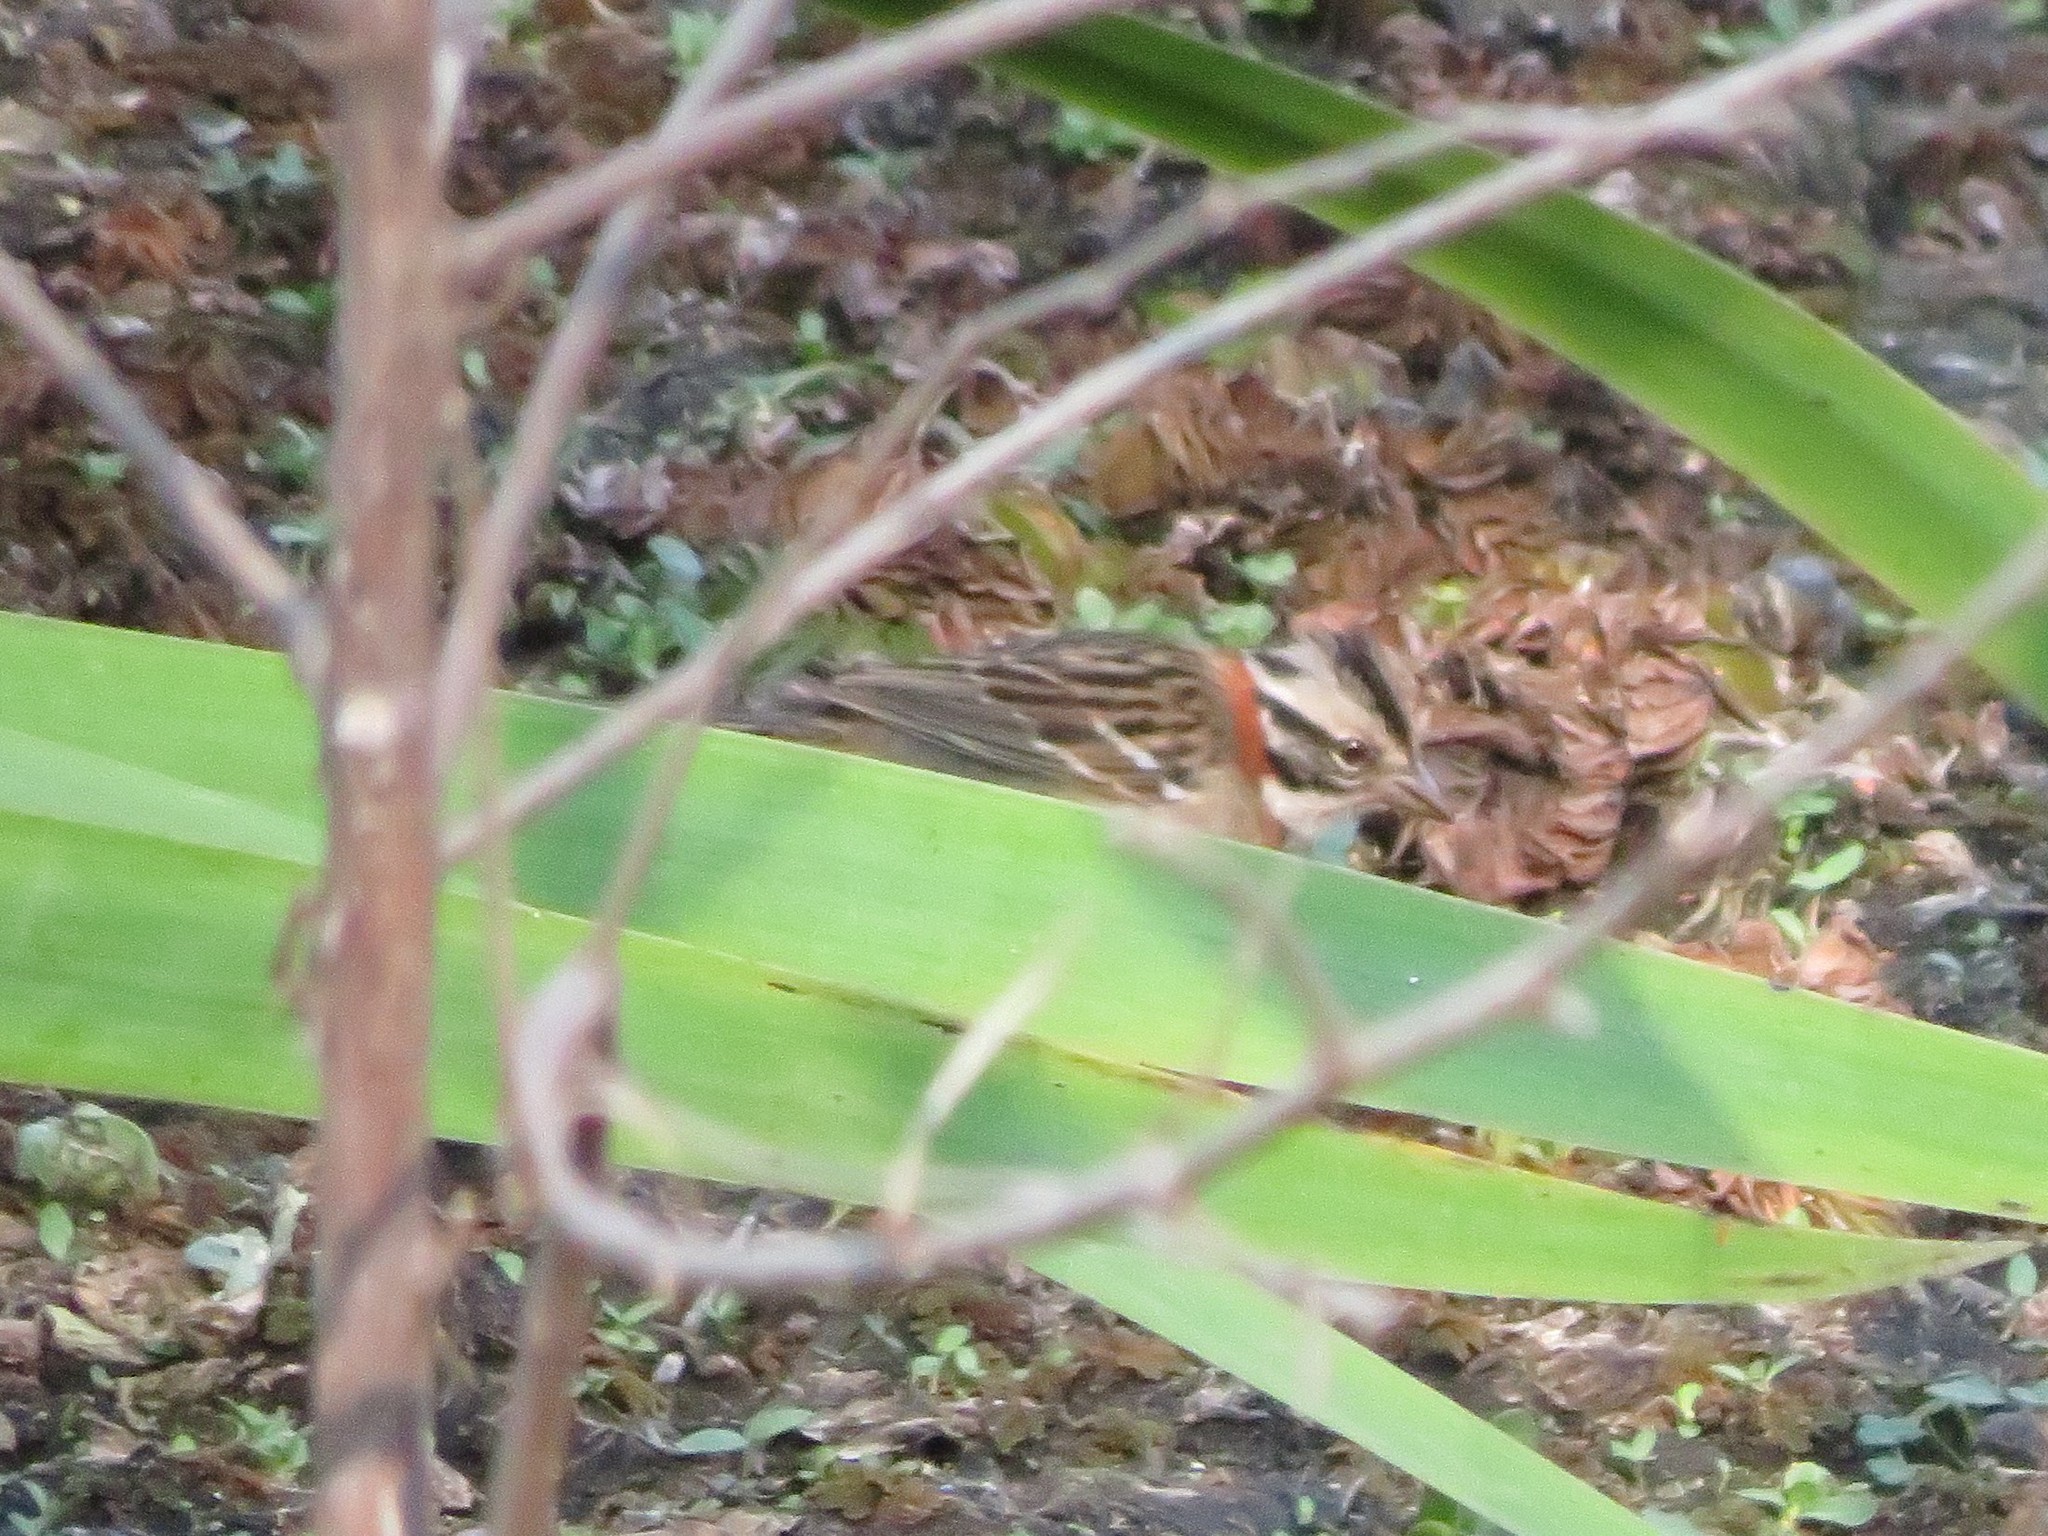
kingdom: Animalia
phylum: Chordata
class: Aves
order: Passeriformes
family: Passerellidae
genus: Zonotrichia
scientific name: Zonotrichia capensis
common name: Rufous-collared sparrow
